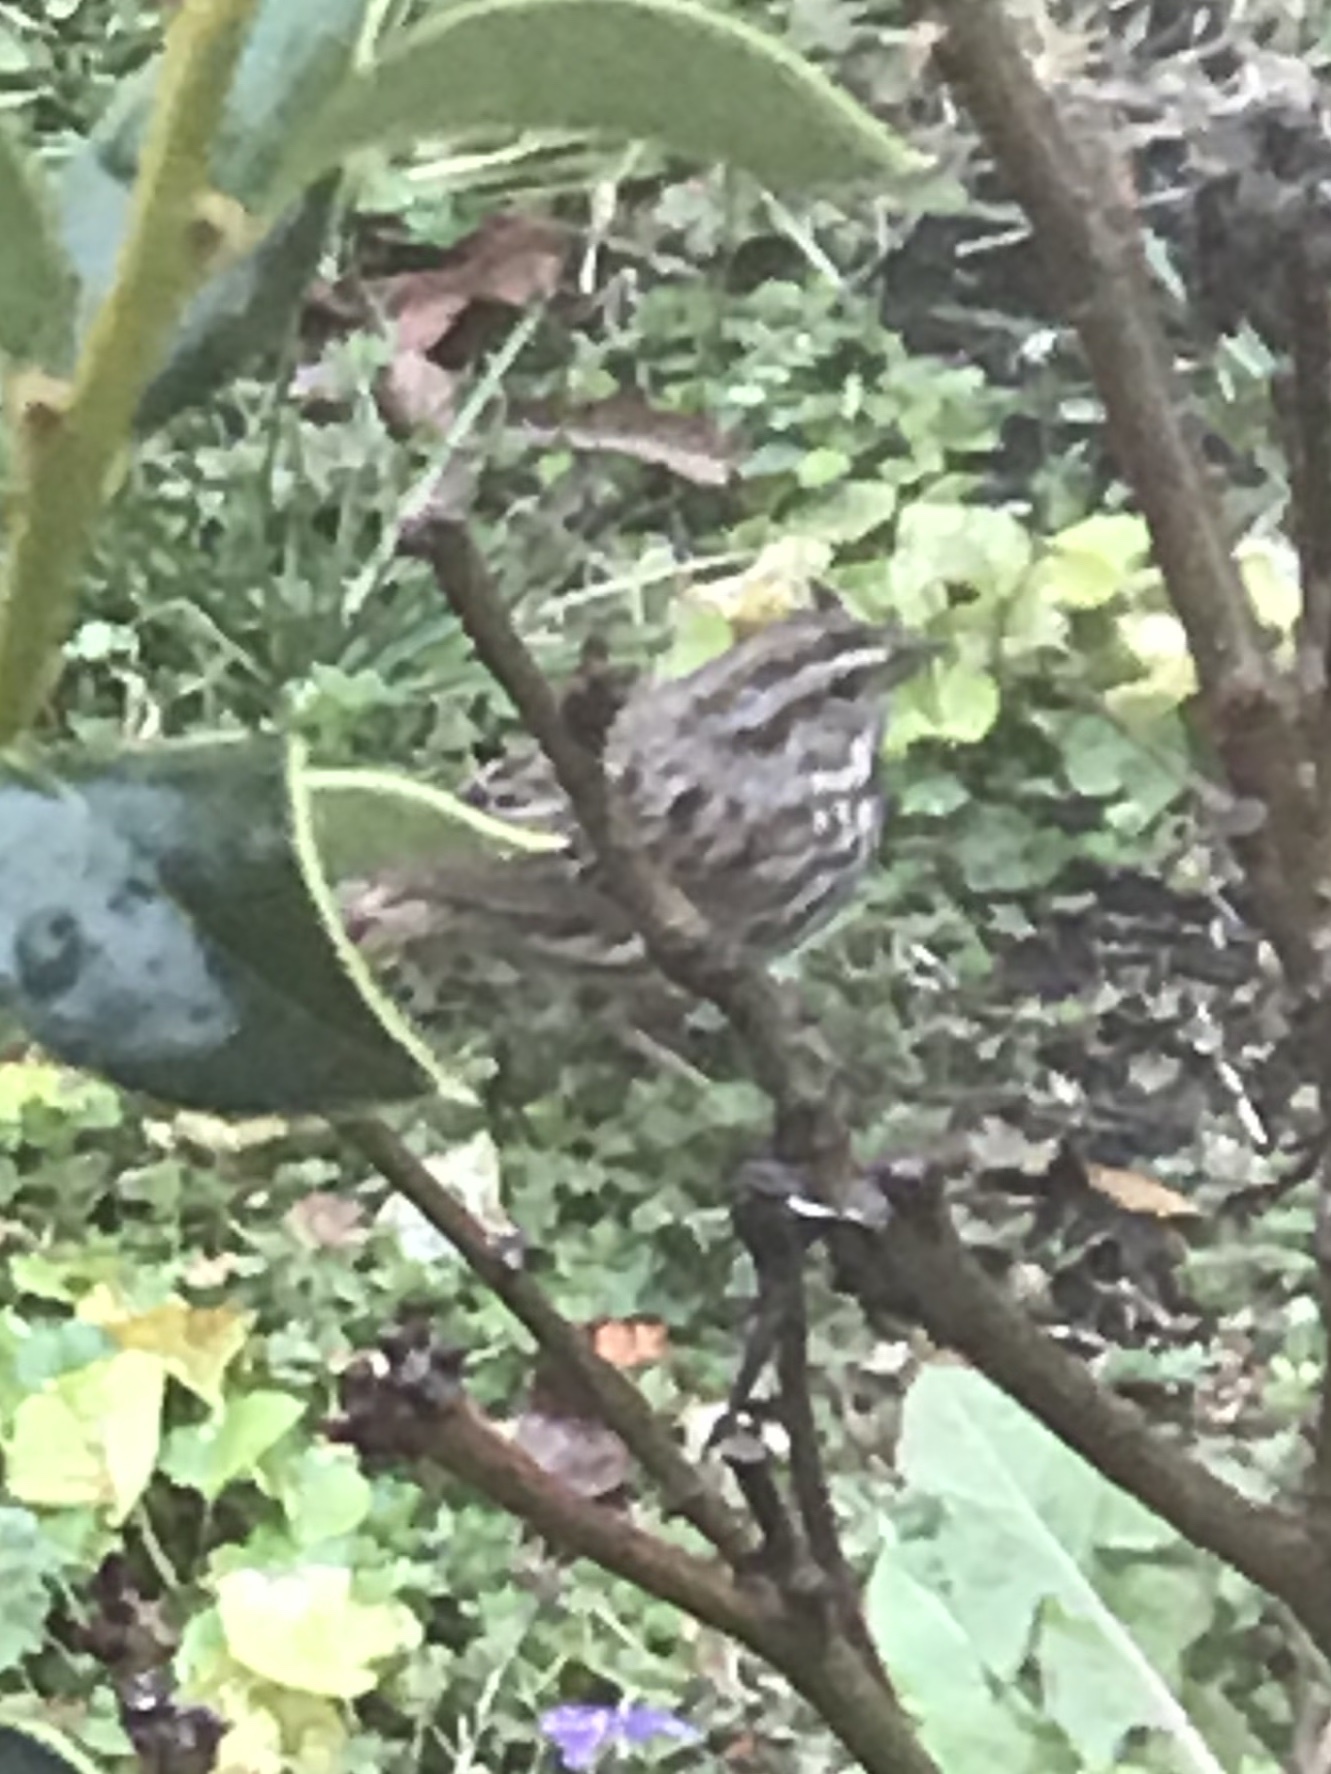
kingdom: Animalia
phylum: Chordata
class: Aves
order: Passeriformes
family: Passerellidae
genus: Melospiza
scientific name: Melospiza melodia
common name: Song sparrow
